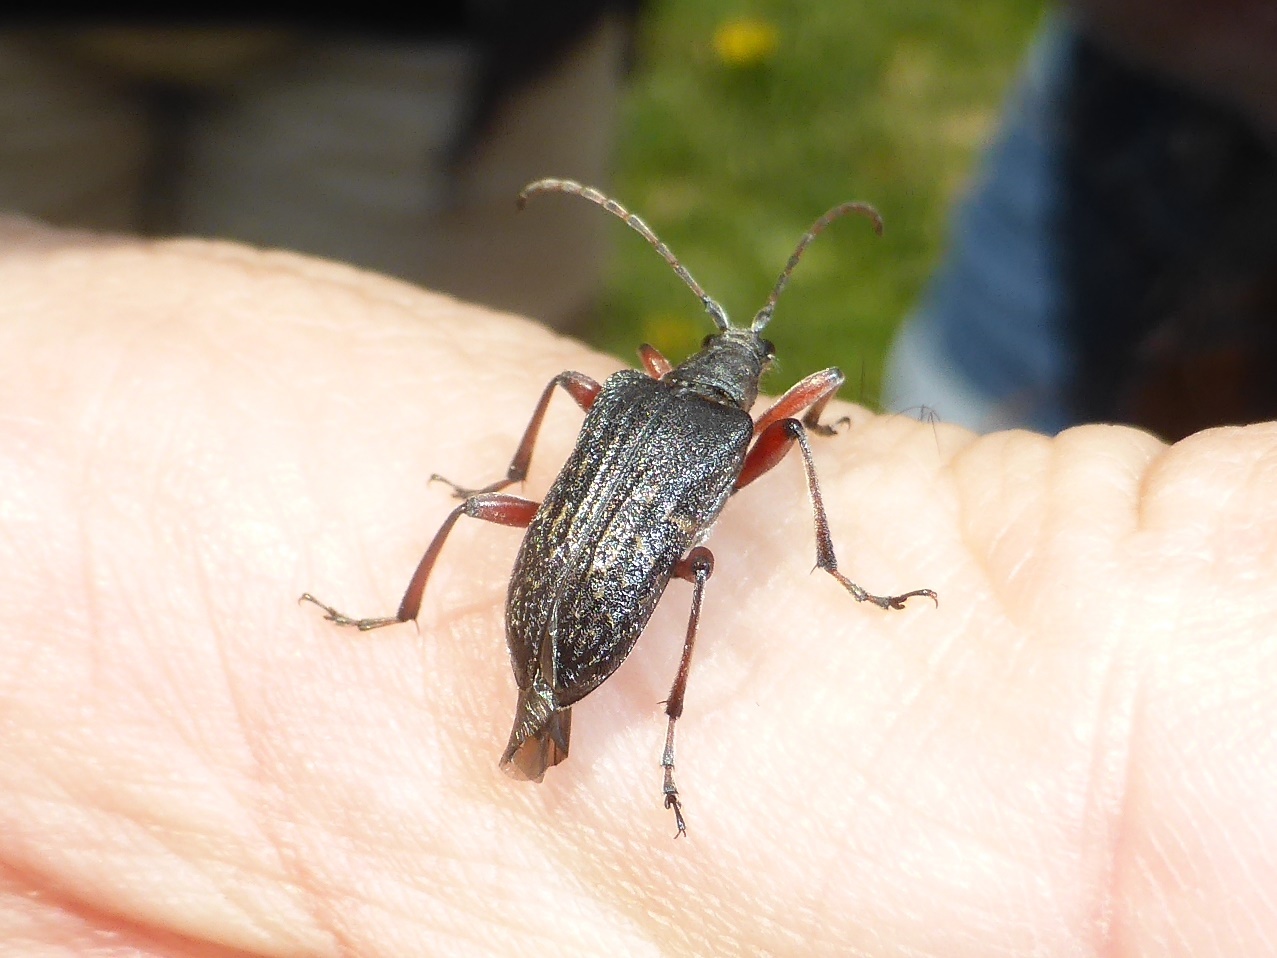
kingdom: Animalia
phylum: Arthropoda
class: Insecta
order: Coleoptera
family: Cerambycidae
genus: Evodinus
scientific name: Evodinus clathratus
